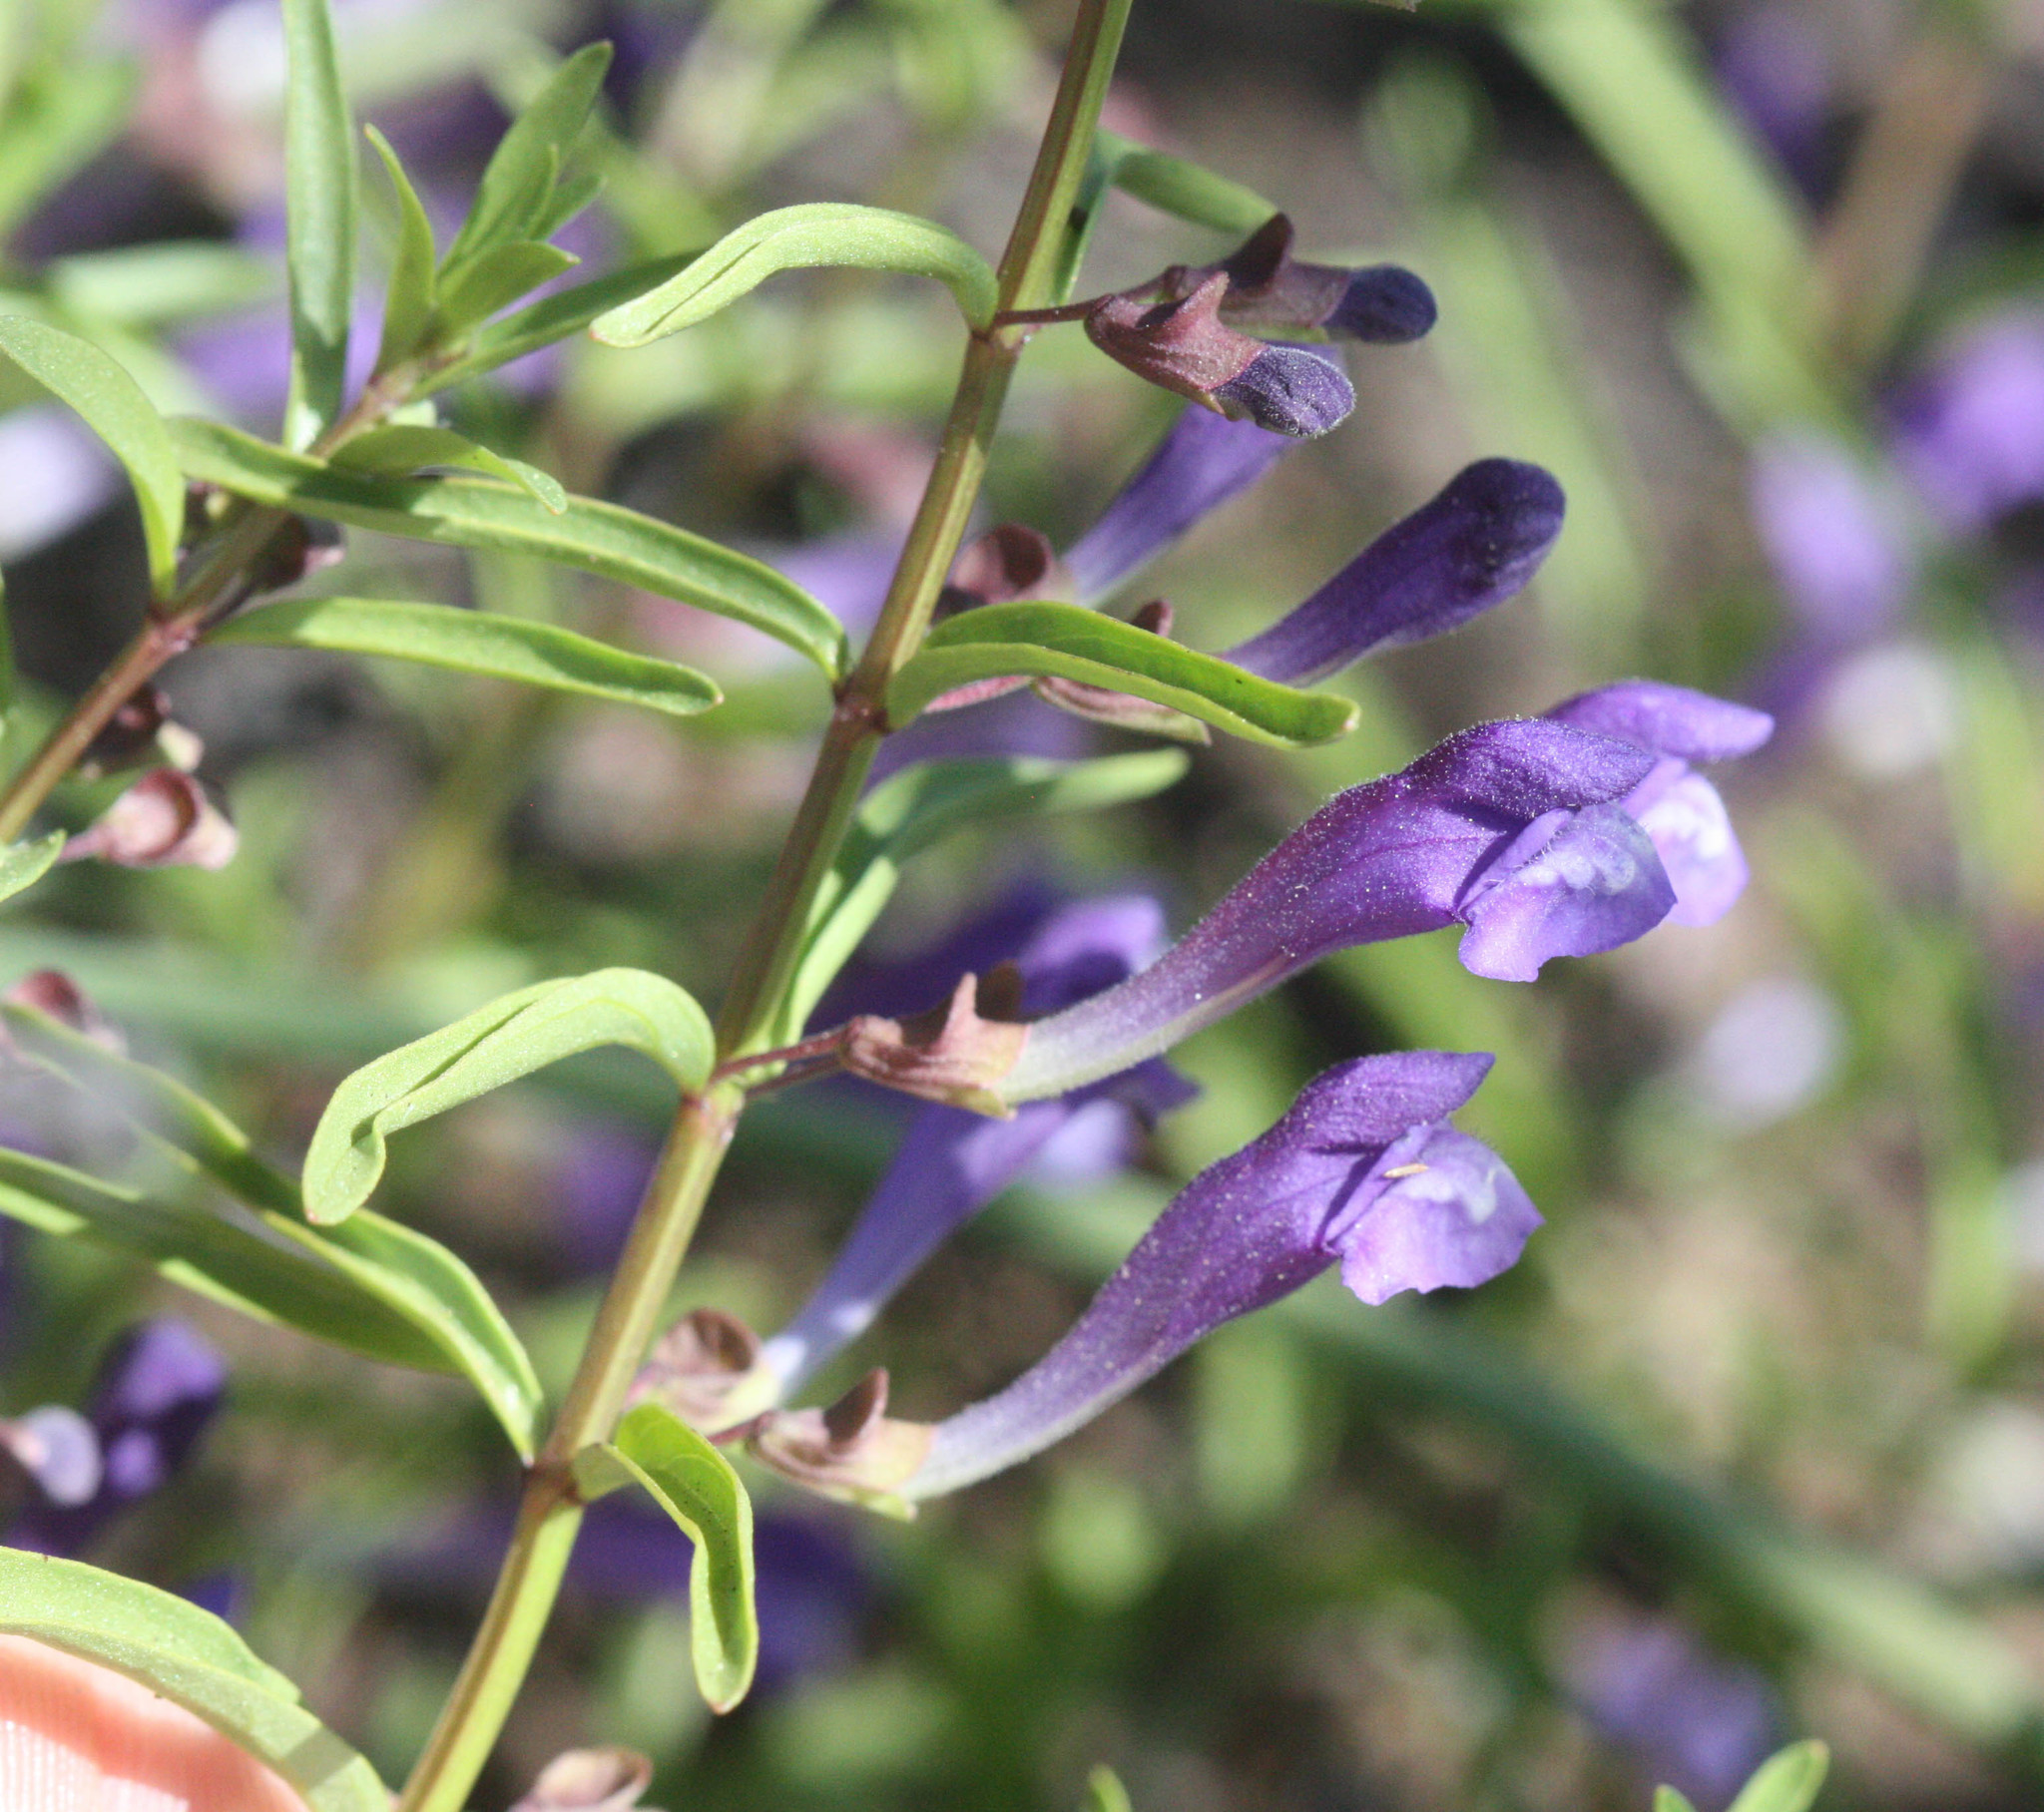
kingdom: Plantae
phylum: Tracheophyta
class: Magnoliopsida
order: Lamiales
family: Lamiaceae
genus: Scutellaria
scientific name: Scutellaria siphocampyloides
